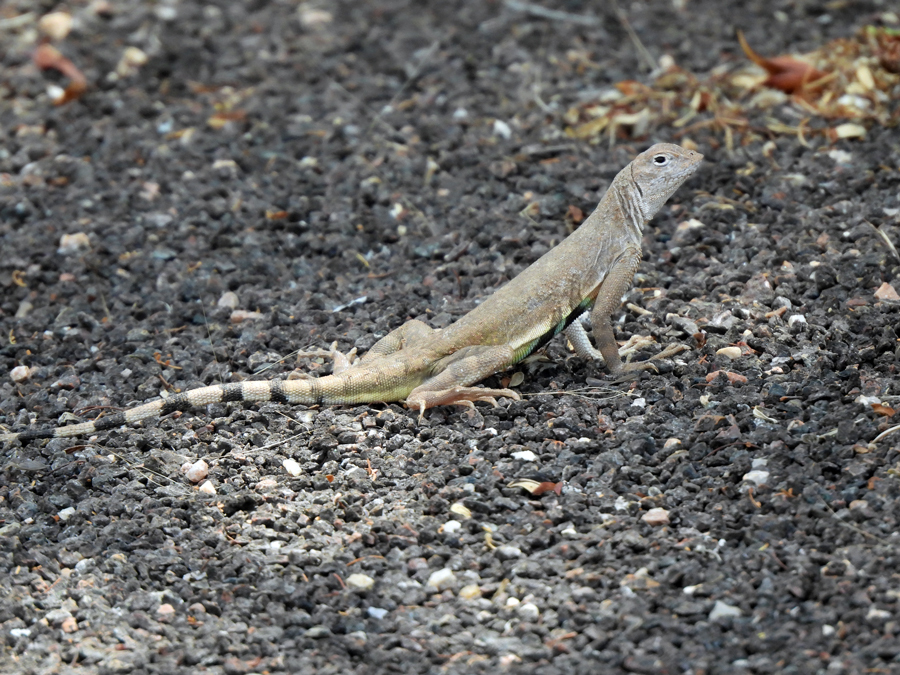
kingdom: Animalia
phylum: Chordata
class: Squamata
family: Phrynosomatidae
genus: Callisaurus
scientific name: Callisaurus draconoides
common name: Zebra-tailed lizard
